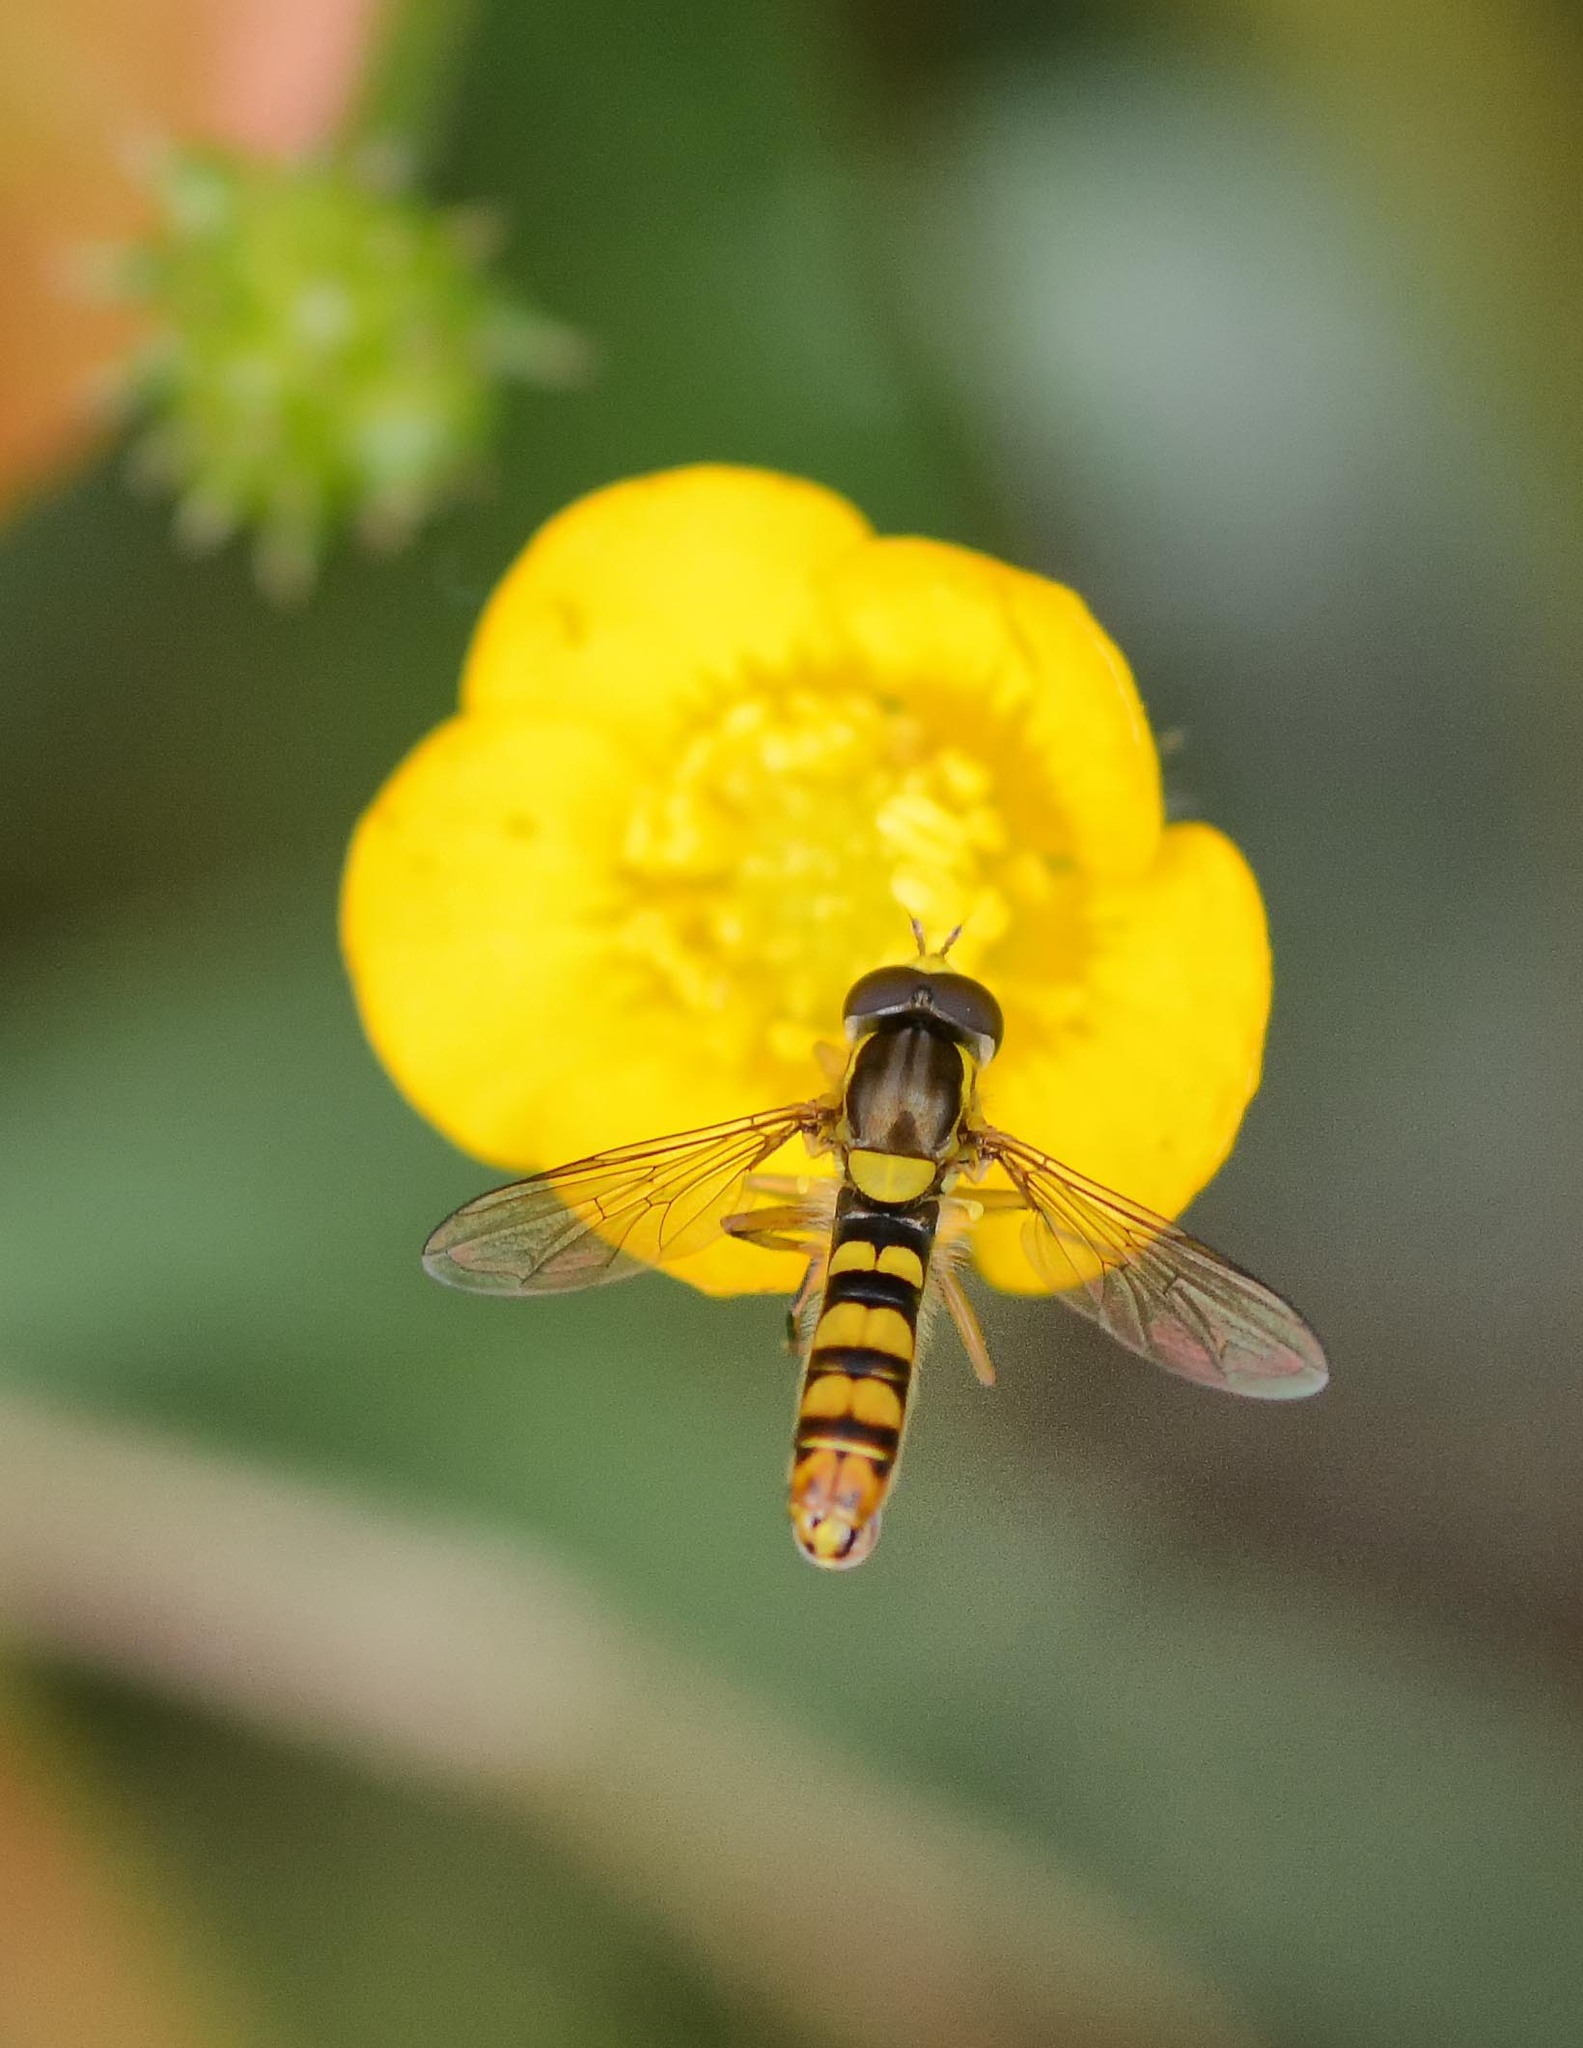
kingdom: Animalia
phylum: Arthropoda
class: Insecta
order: Diptera
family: Syrphidae
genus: Sphaerophoria
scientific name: Sphaerophoria
